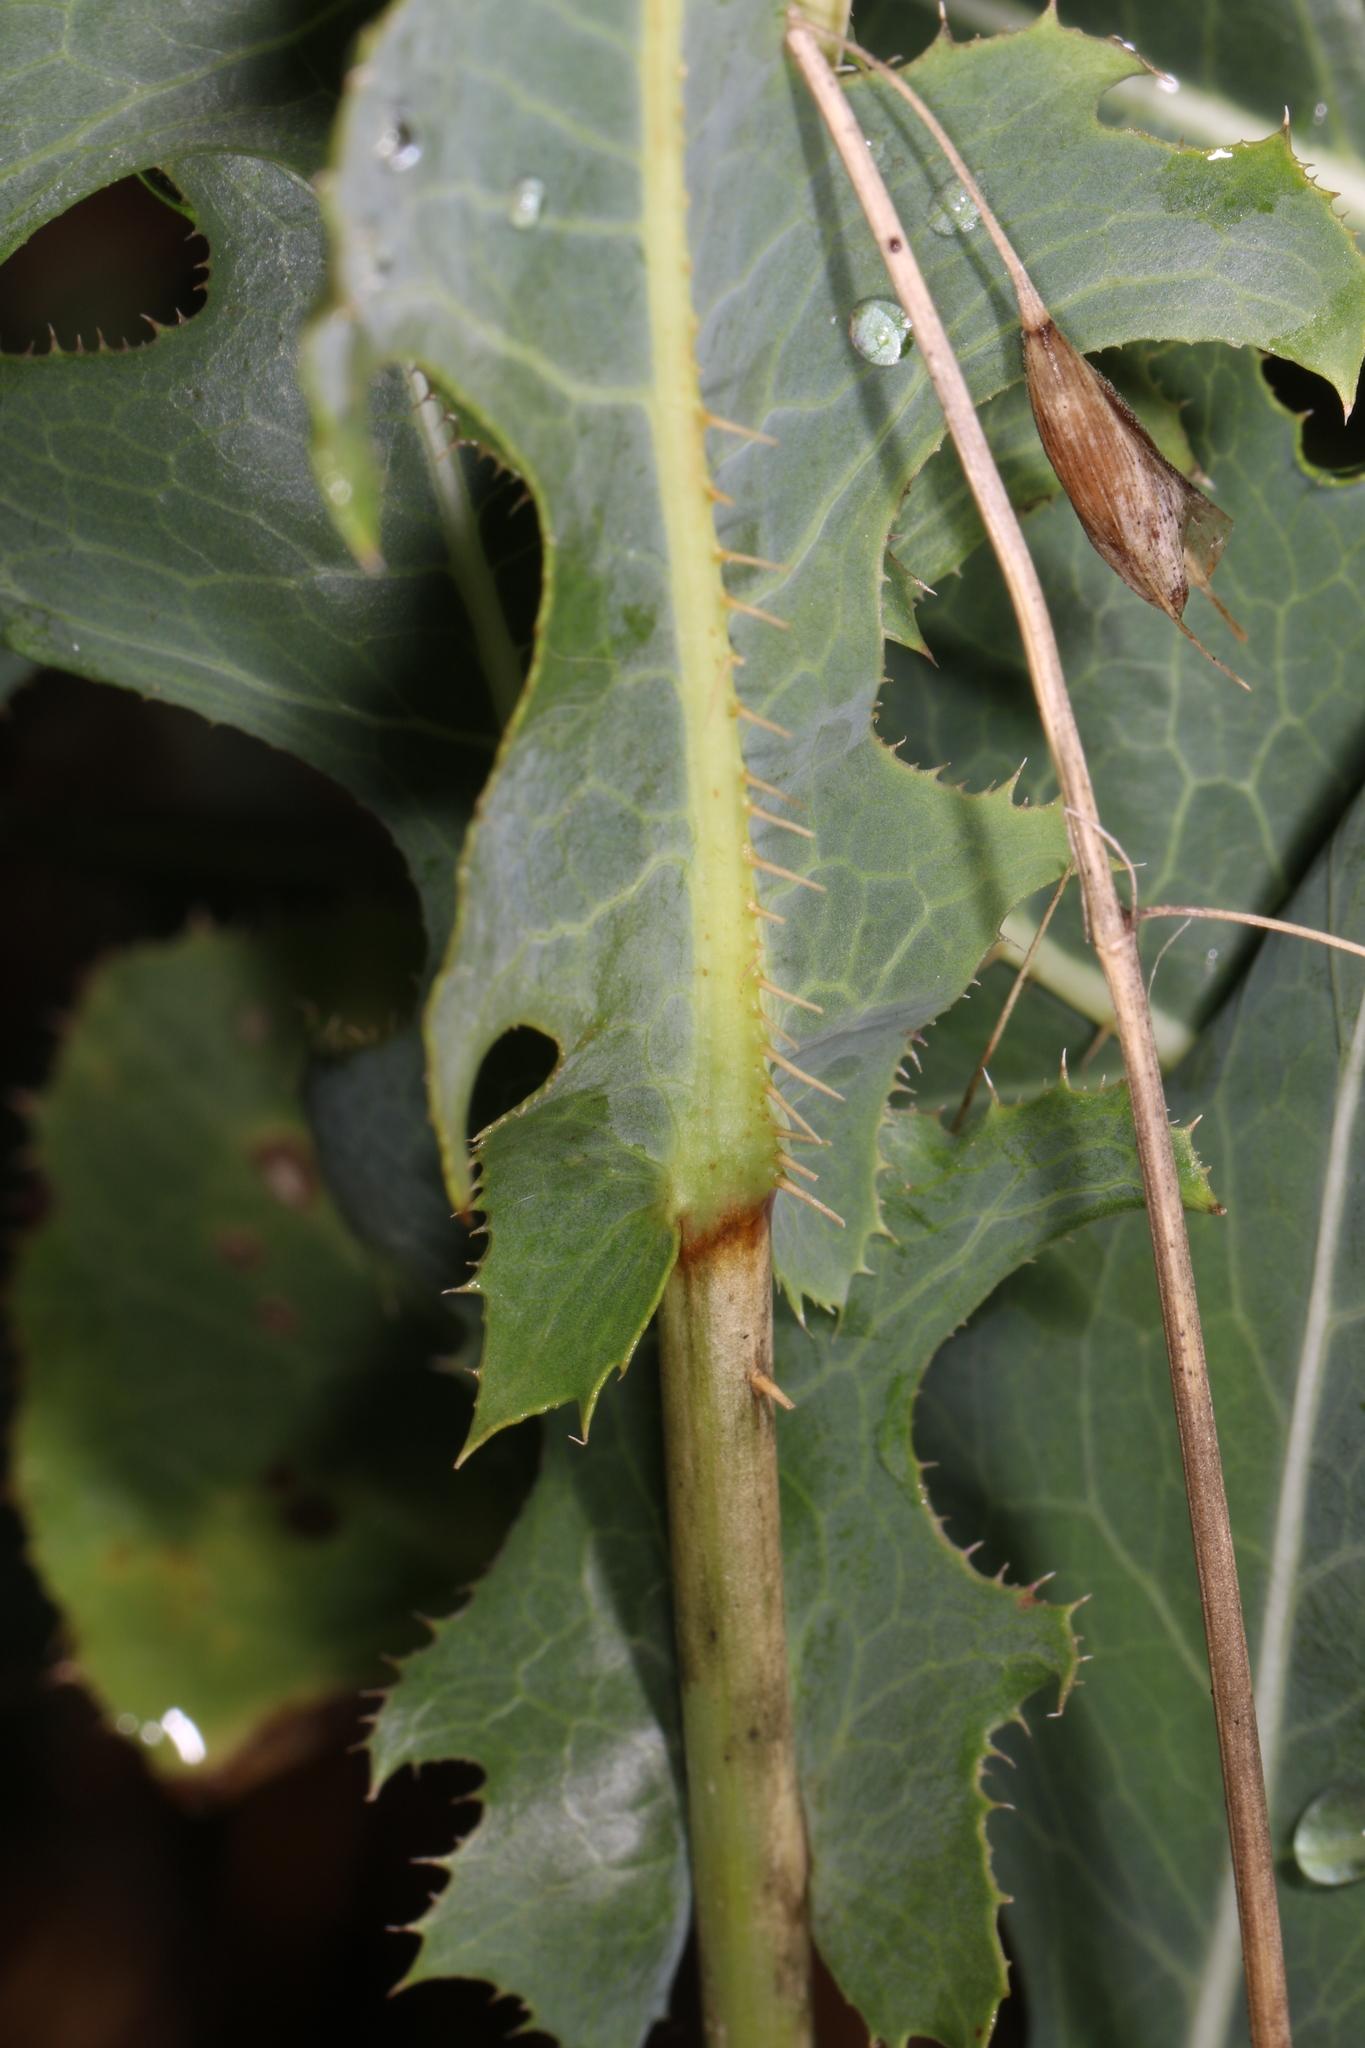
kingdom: Plantae
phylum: Tracheophyta
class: Magnoliopsida
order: Asterales
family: Asteraceae
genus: Lactuca
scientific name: Lactuca serriola
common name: Prickly lettuce
